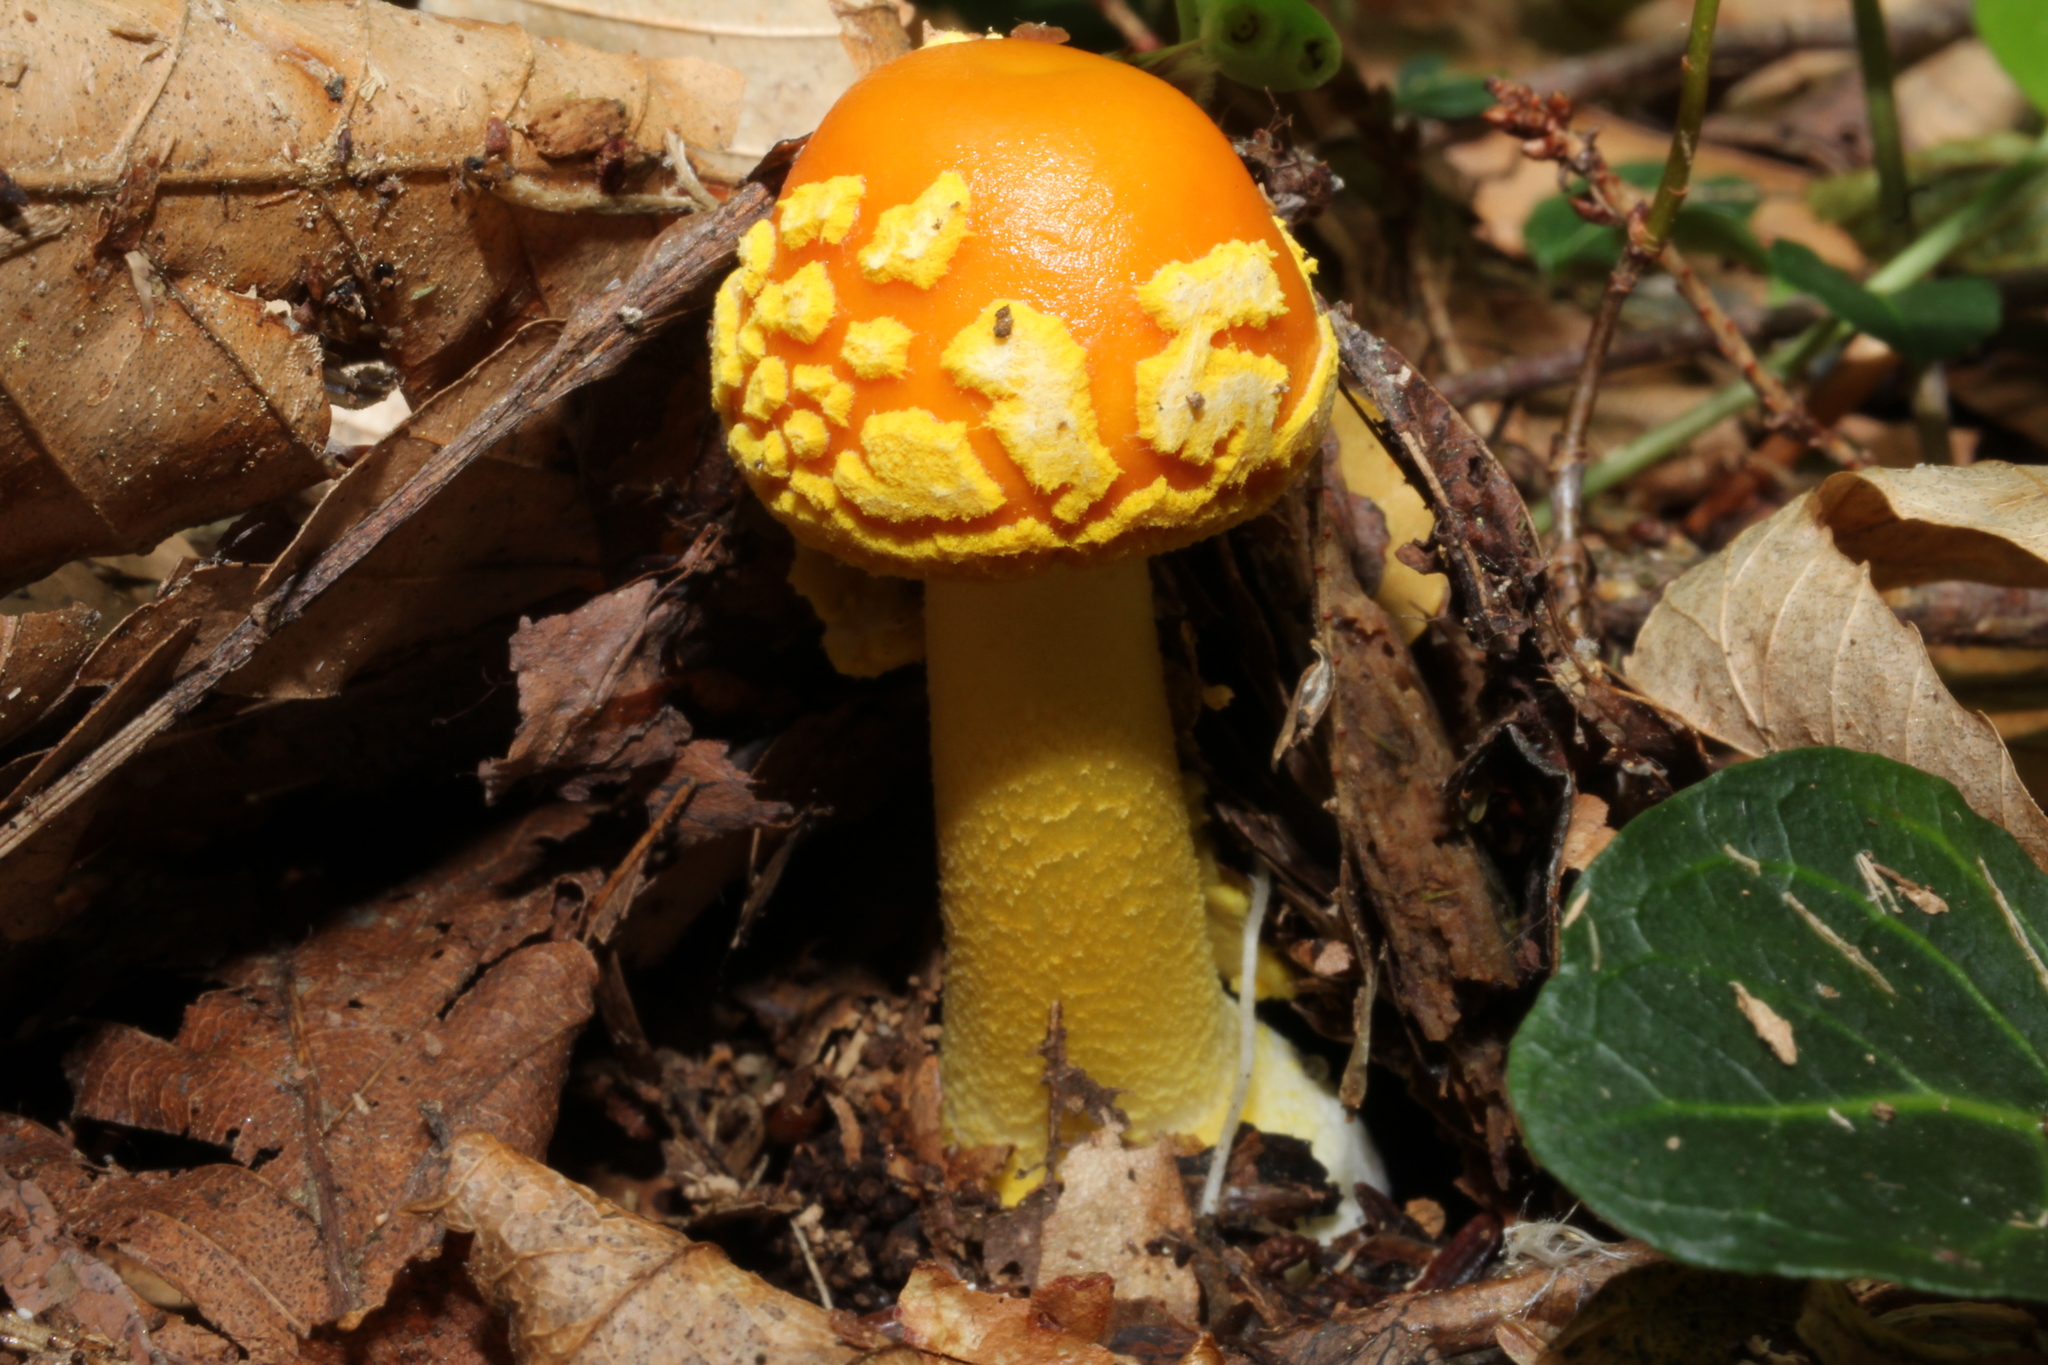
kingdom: Fungi
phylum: Basidiomycota
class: Agaricomycetes
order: Agaricales
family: Amanitaceae
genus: Amanita
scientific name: Amanita flavoconia
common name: Yellow patches
